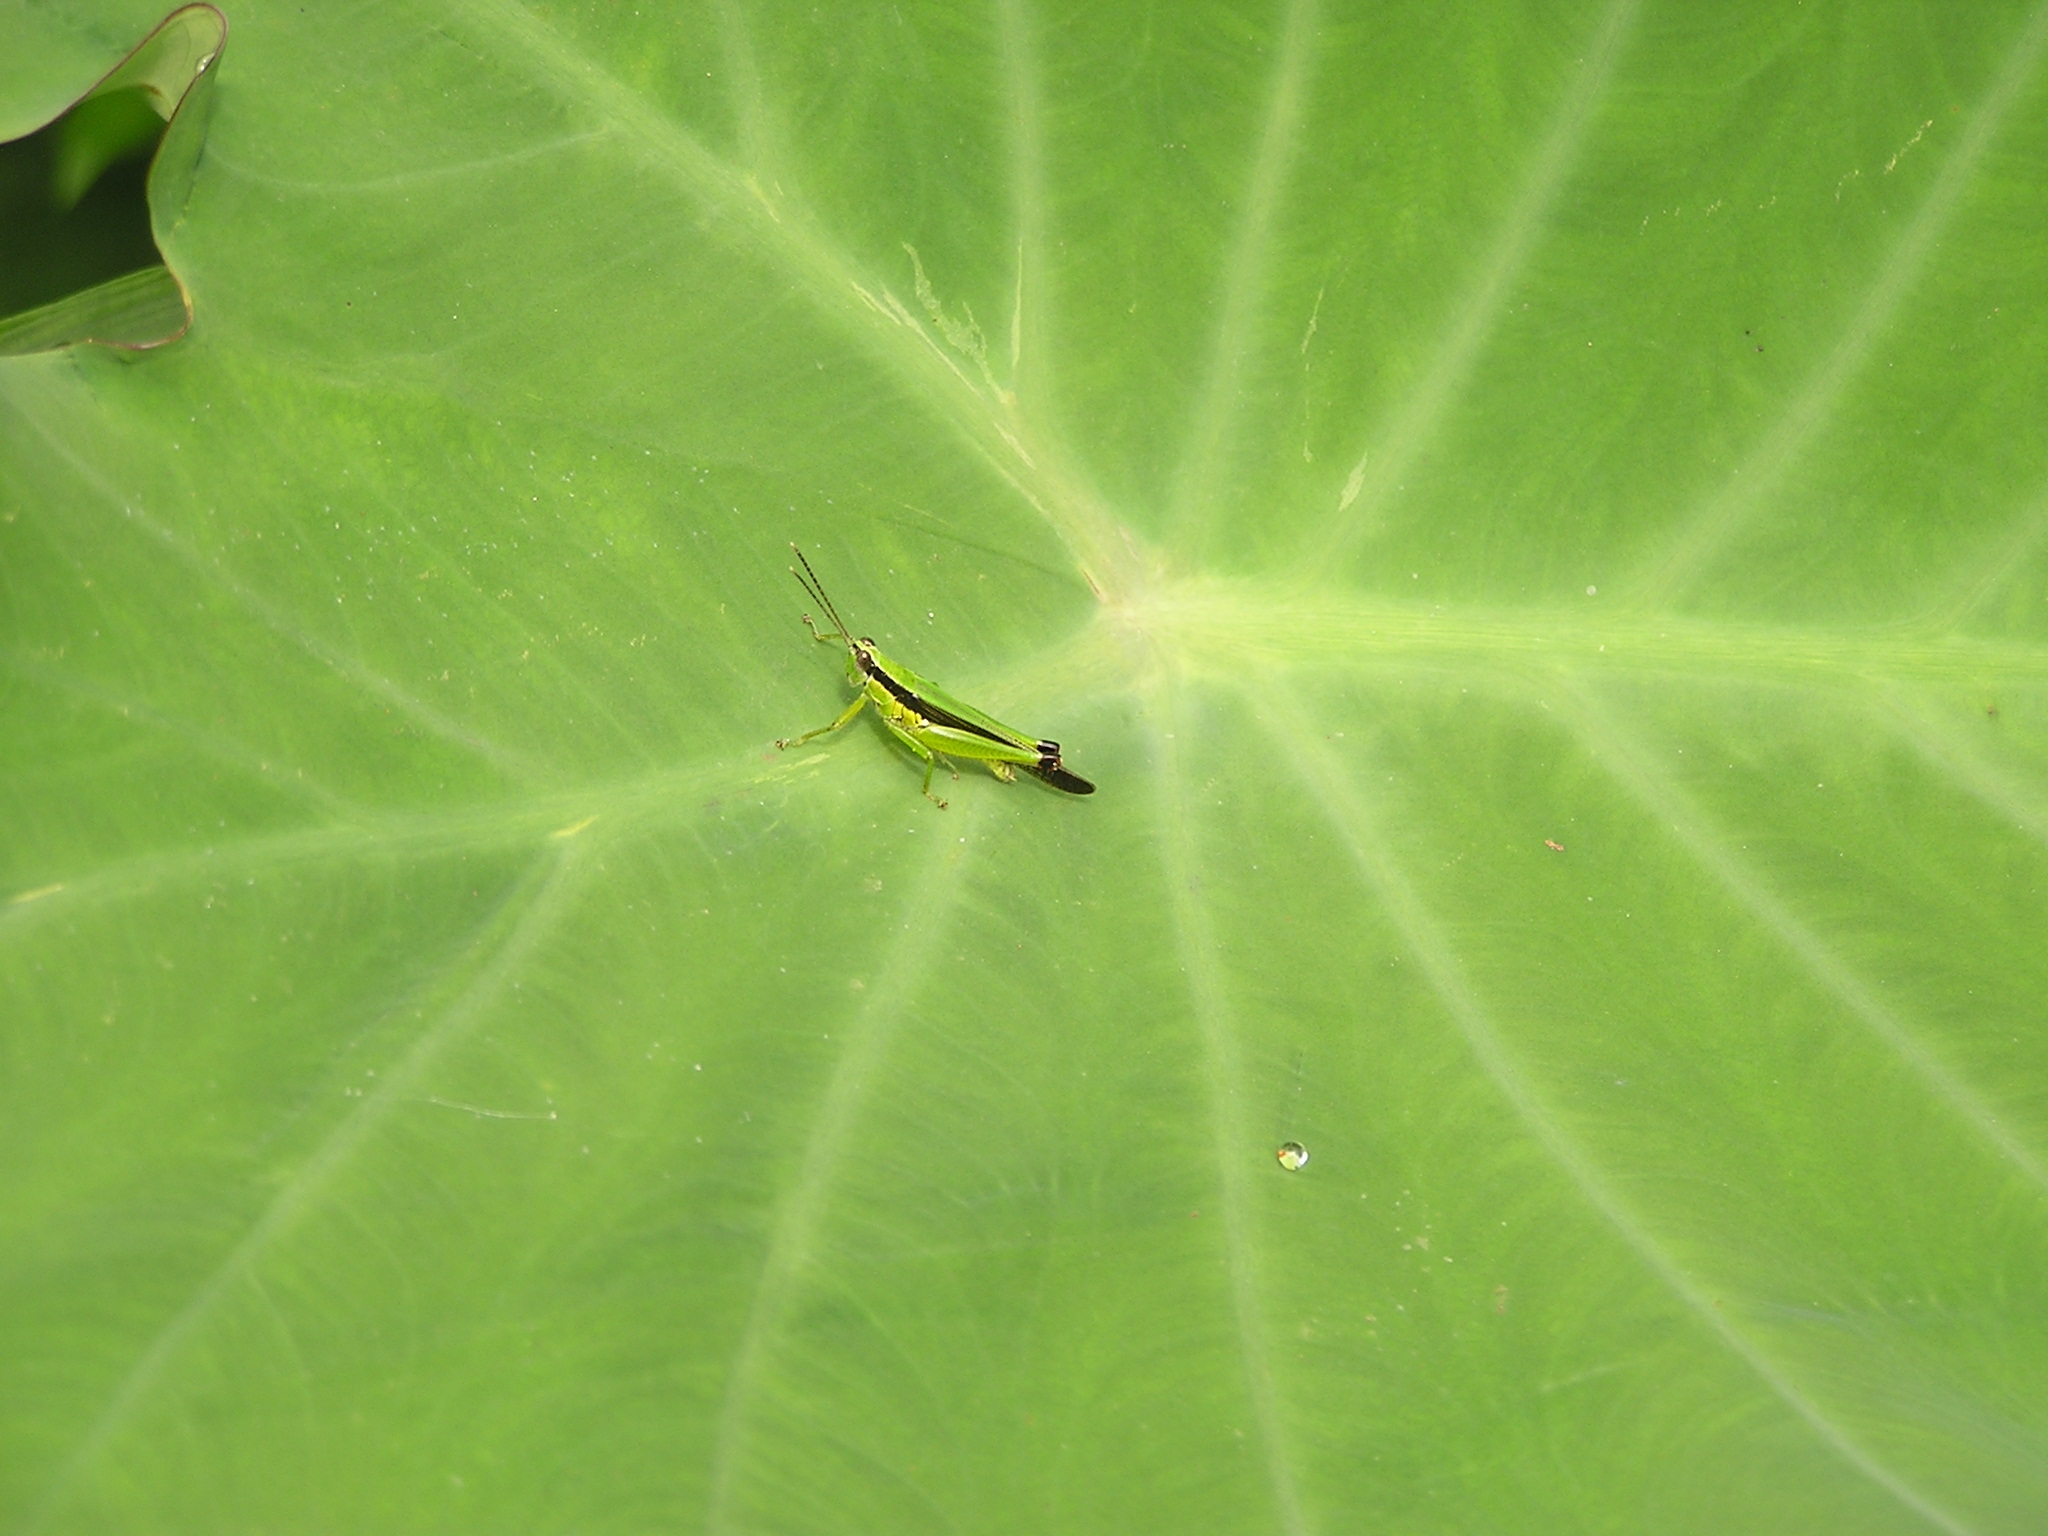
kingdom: Animalia
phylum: Arthropoda
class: Insecta
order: Orthoptera
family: Acrididae
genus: Gesonula
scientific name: Gesonula mundata
